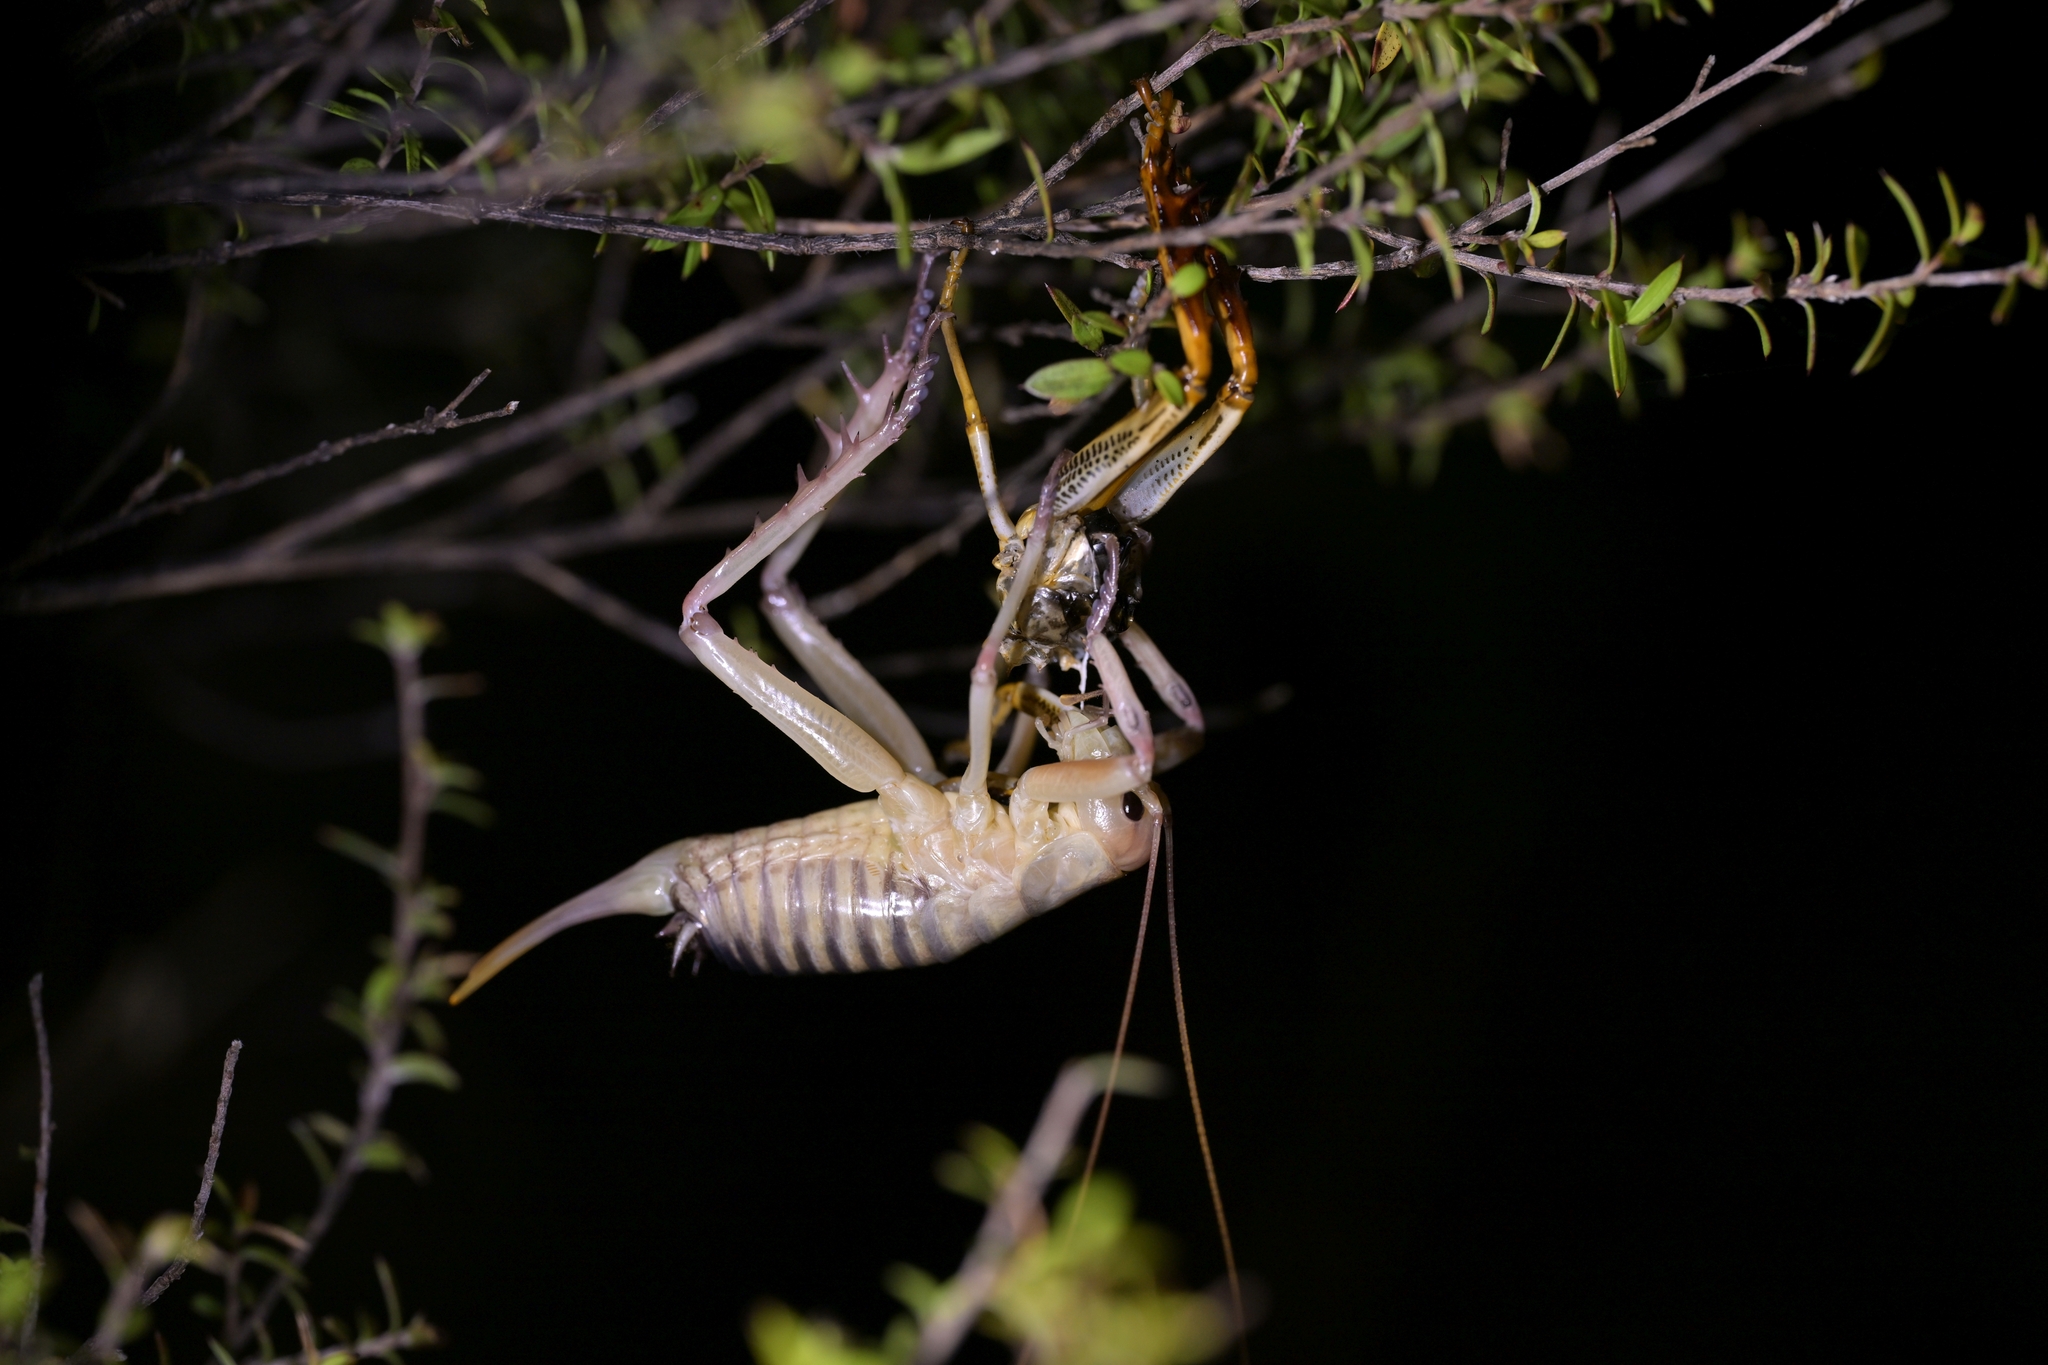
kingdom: Animalia
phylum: Arthropoda
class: Insecta
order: Orthoptera
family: Anostostomatidae
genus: Hemideina
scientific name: Hemideina crassidens
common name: Wellington tree weta
